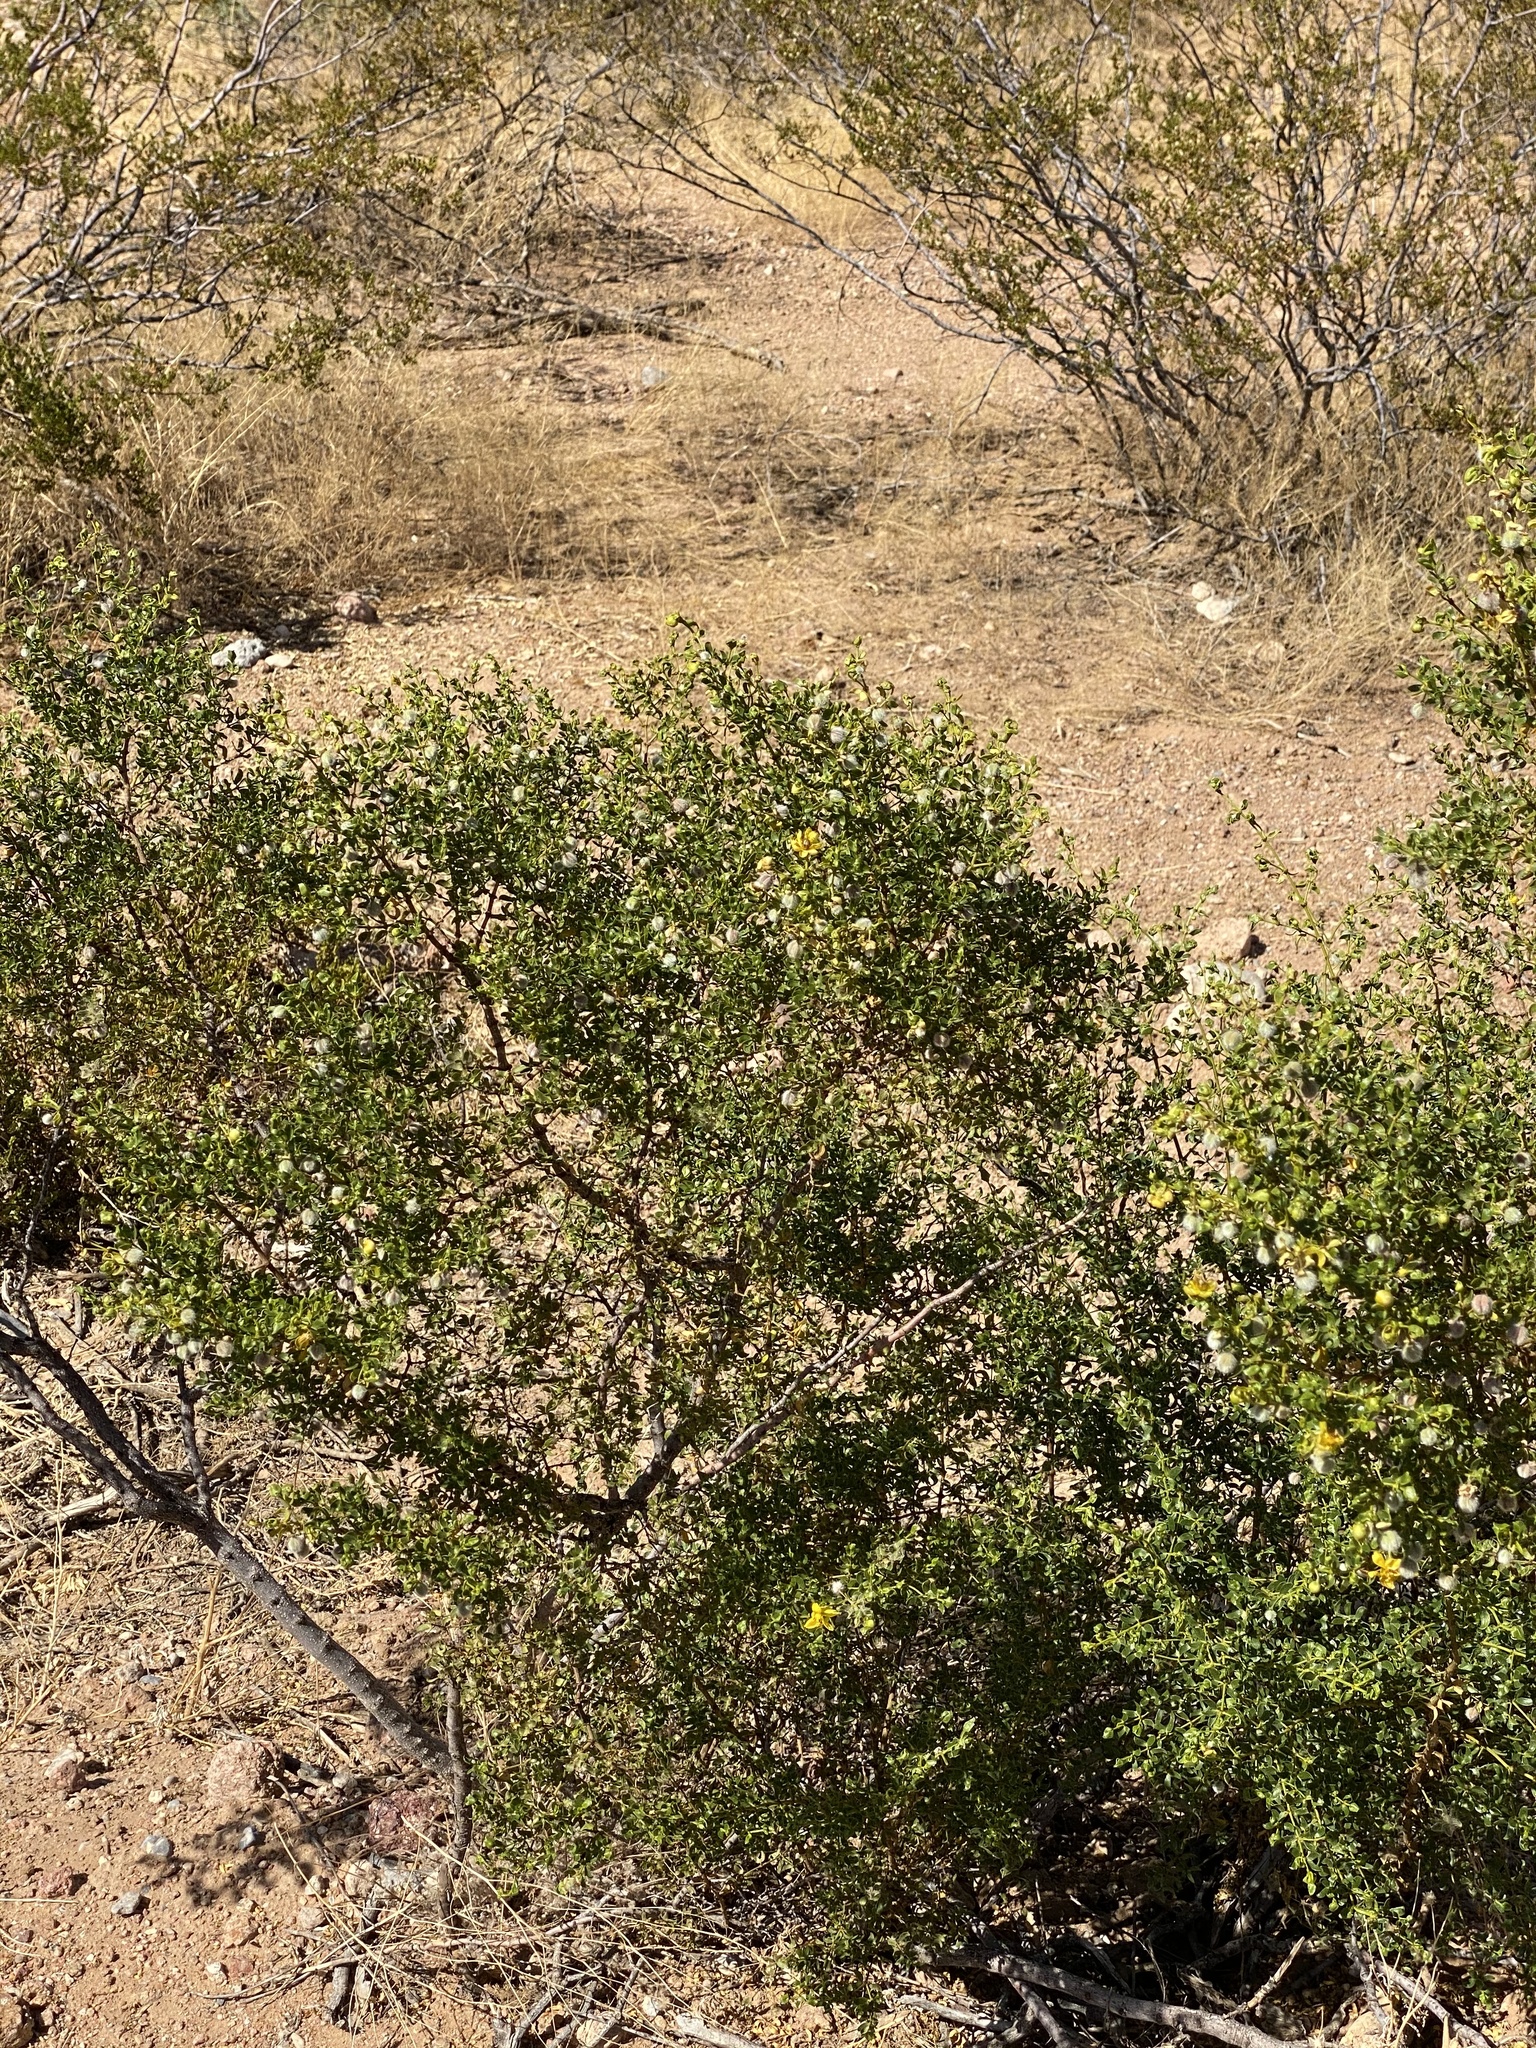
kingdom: Plantae
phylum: Tracheophyta
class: Magnoliopsida
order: Zygophyllales
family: Zygophyllaceae
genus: Larrea
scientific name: Larrea tridentata
